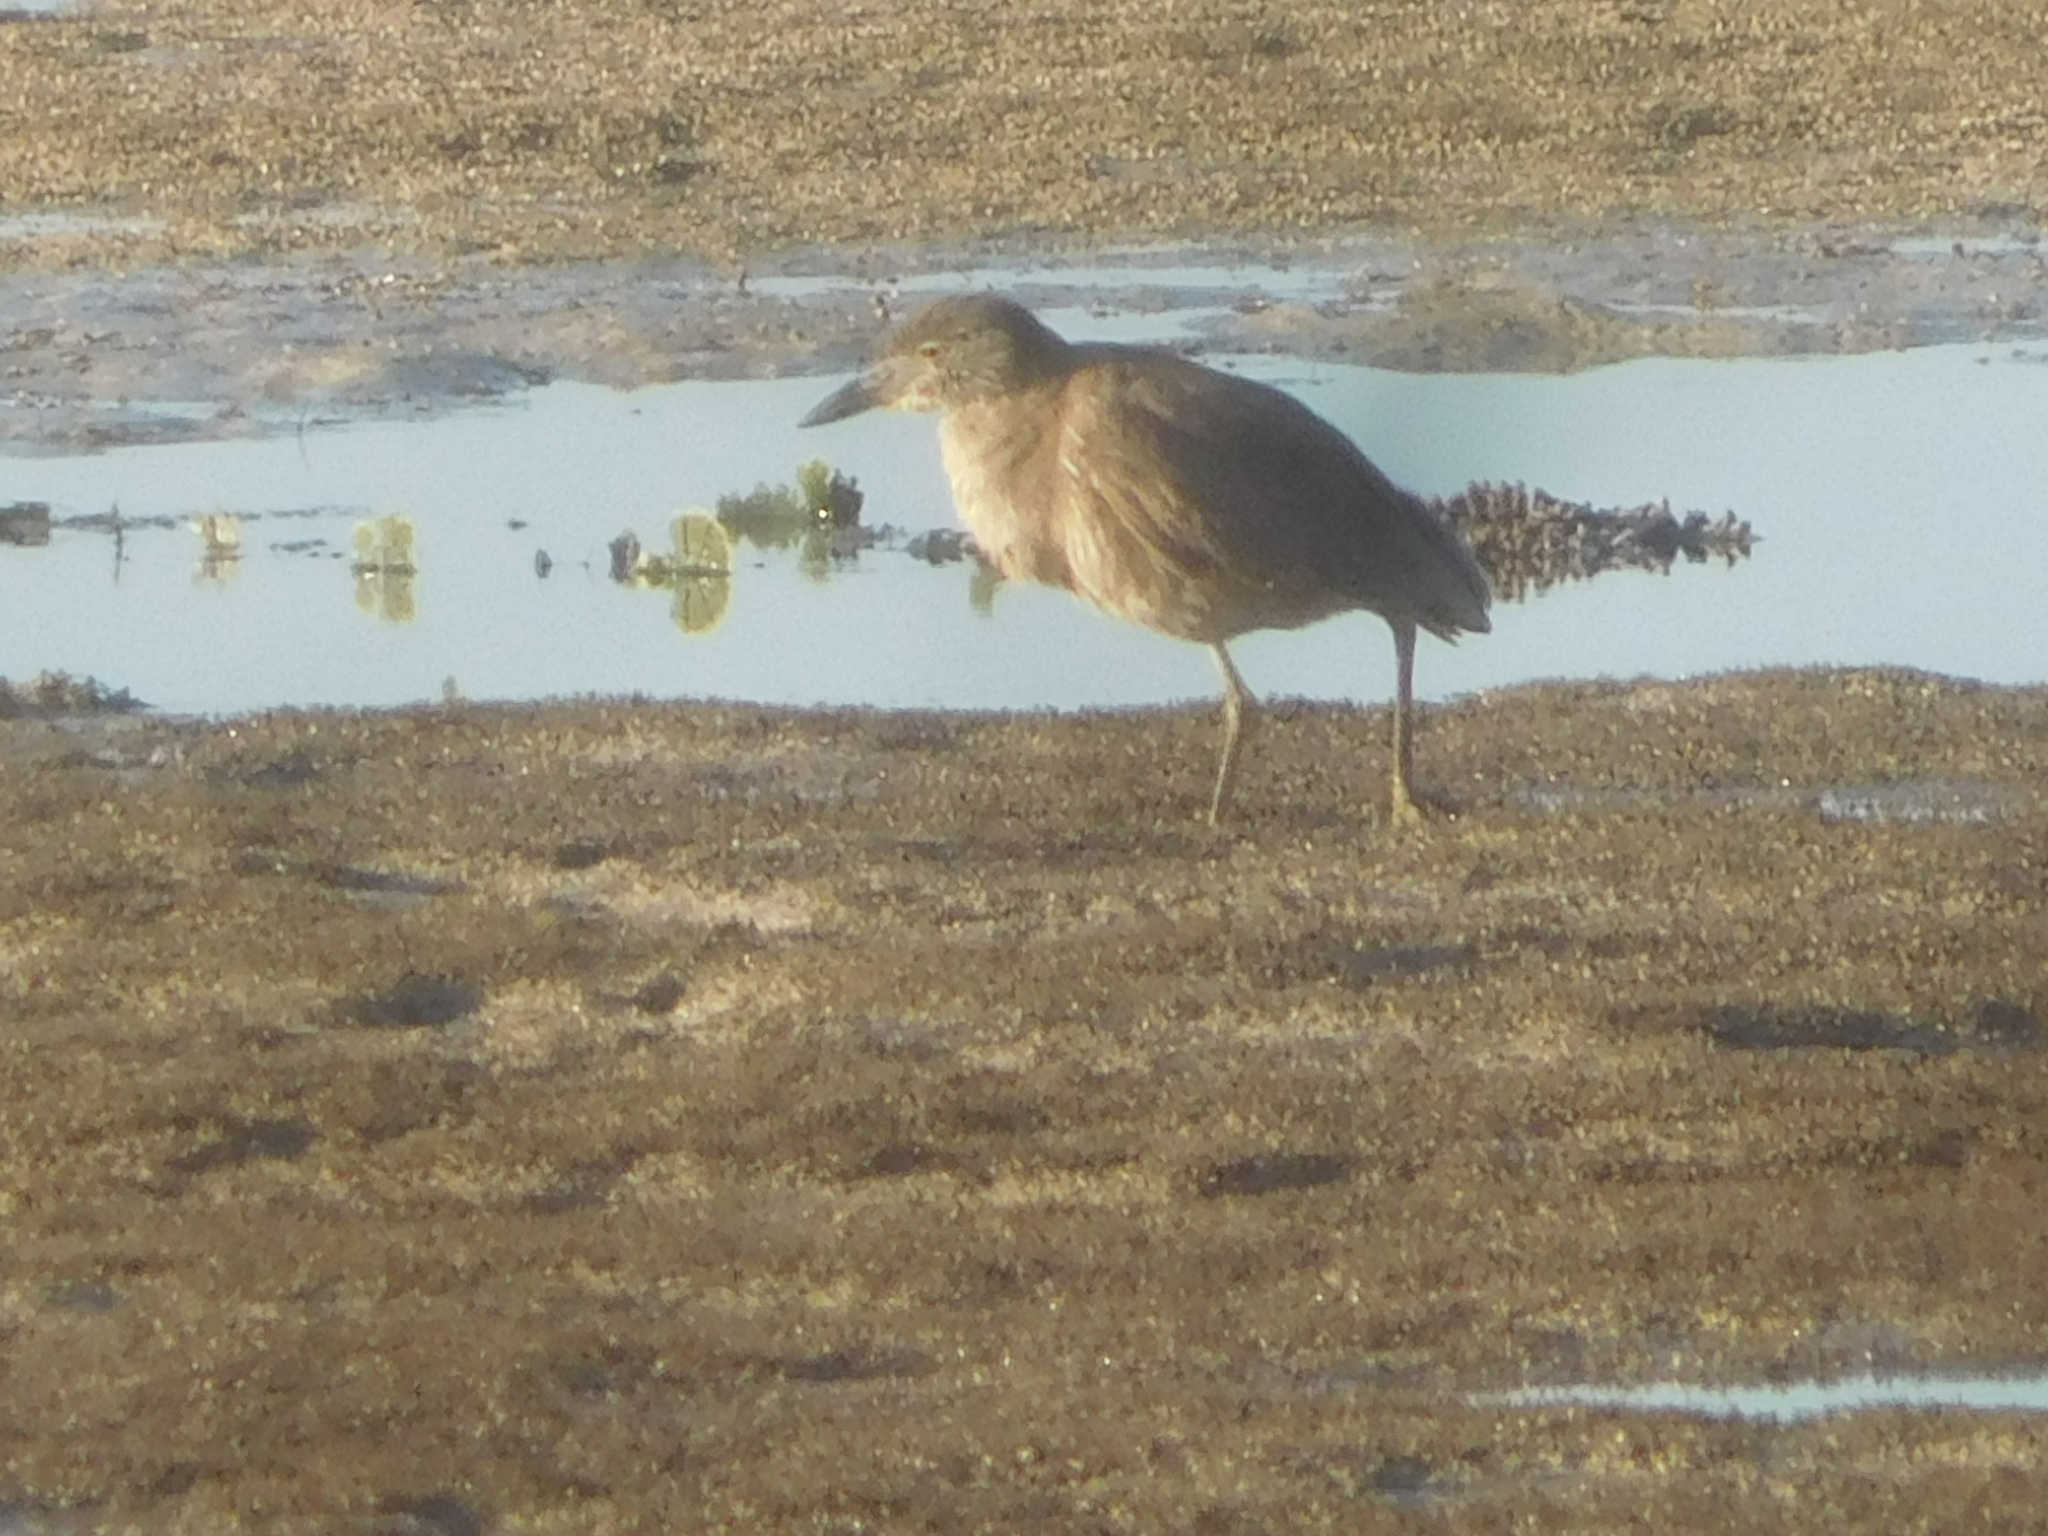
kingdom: Animalia
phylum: Chordata
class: Aves
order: Pelecaniformes
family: Ardeidae
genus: Nyctanassa
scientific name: Nyctanassa violacea
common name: Yellow-crowned night heron
